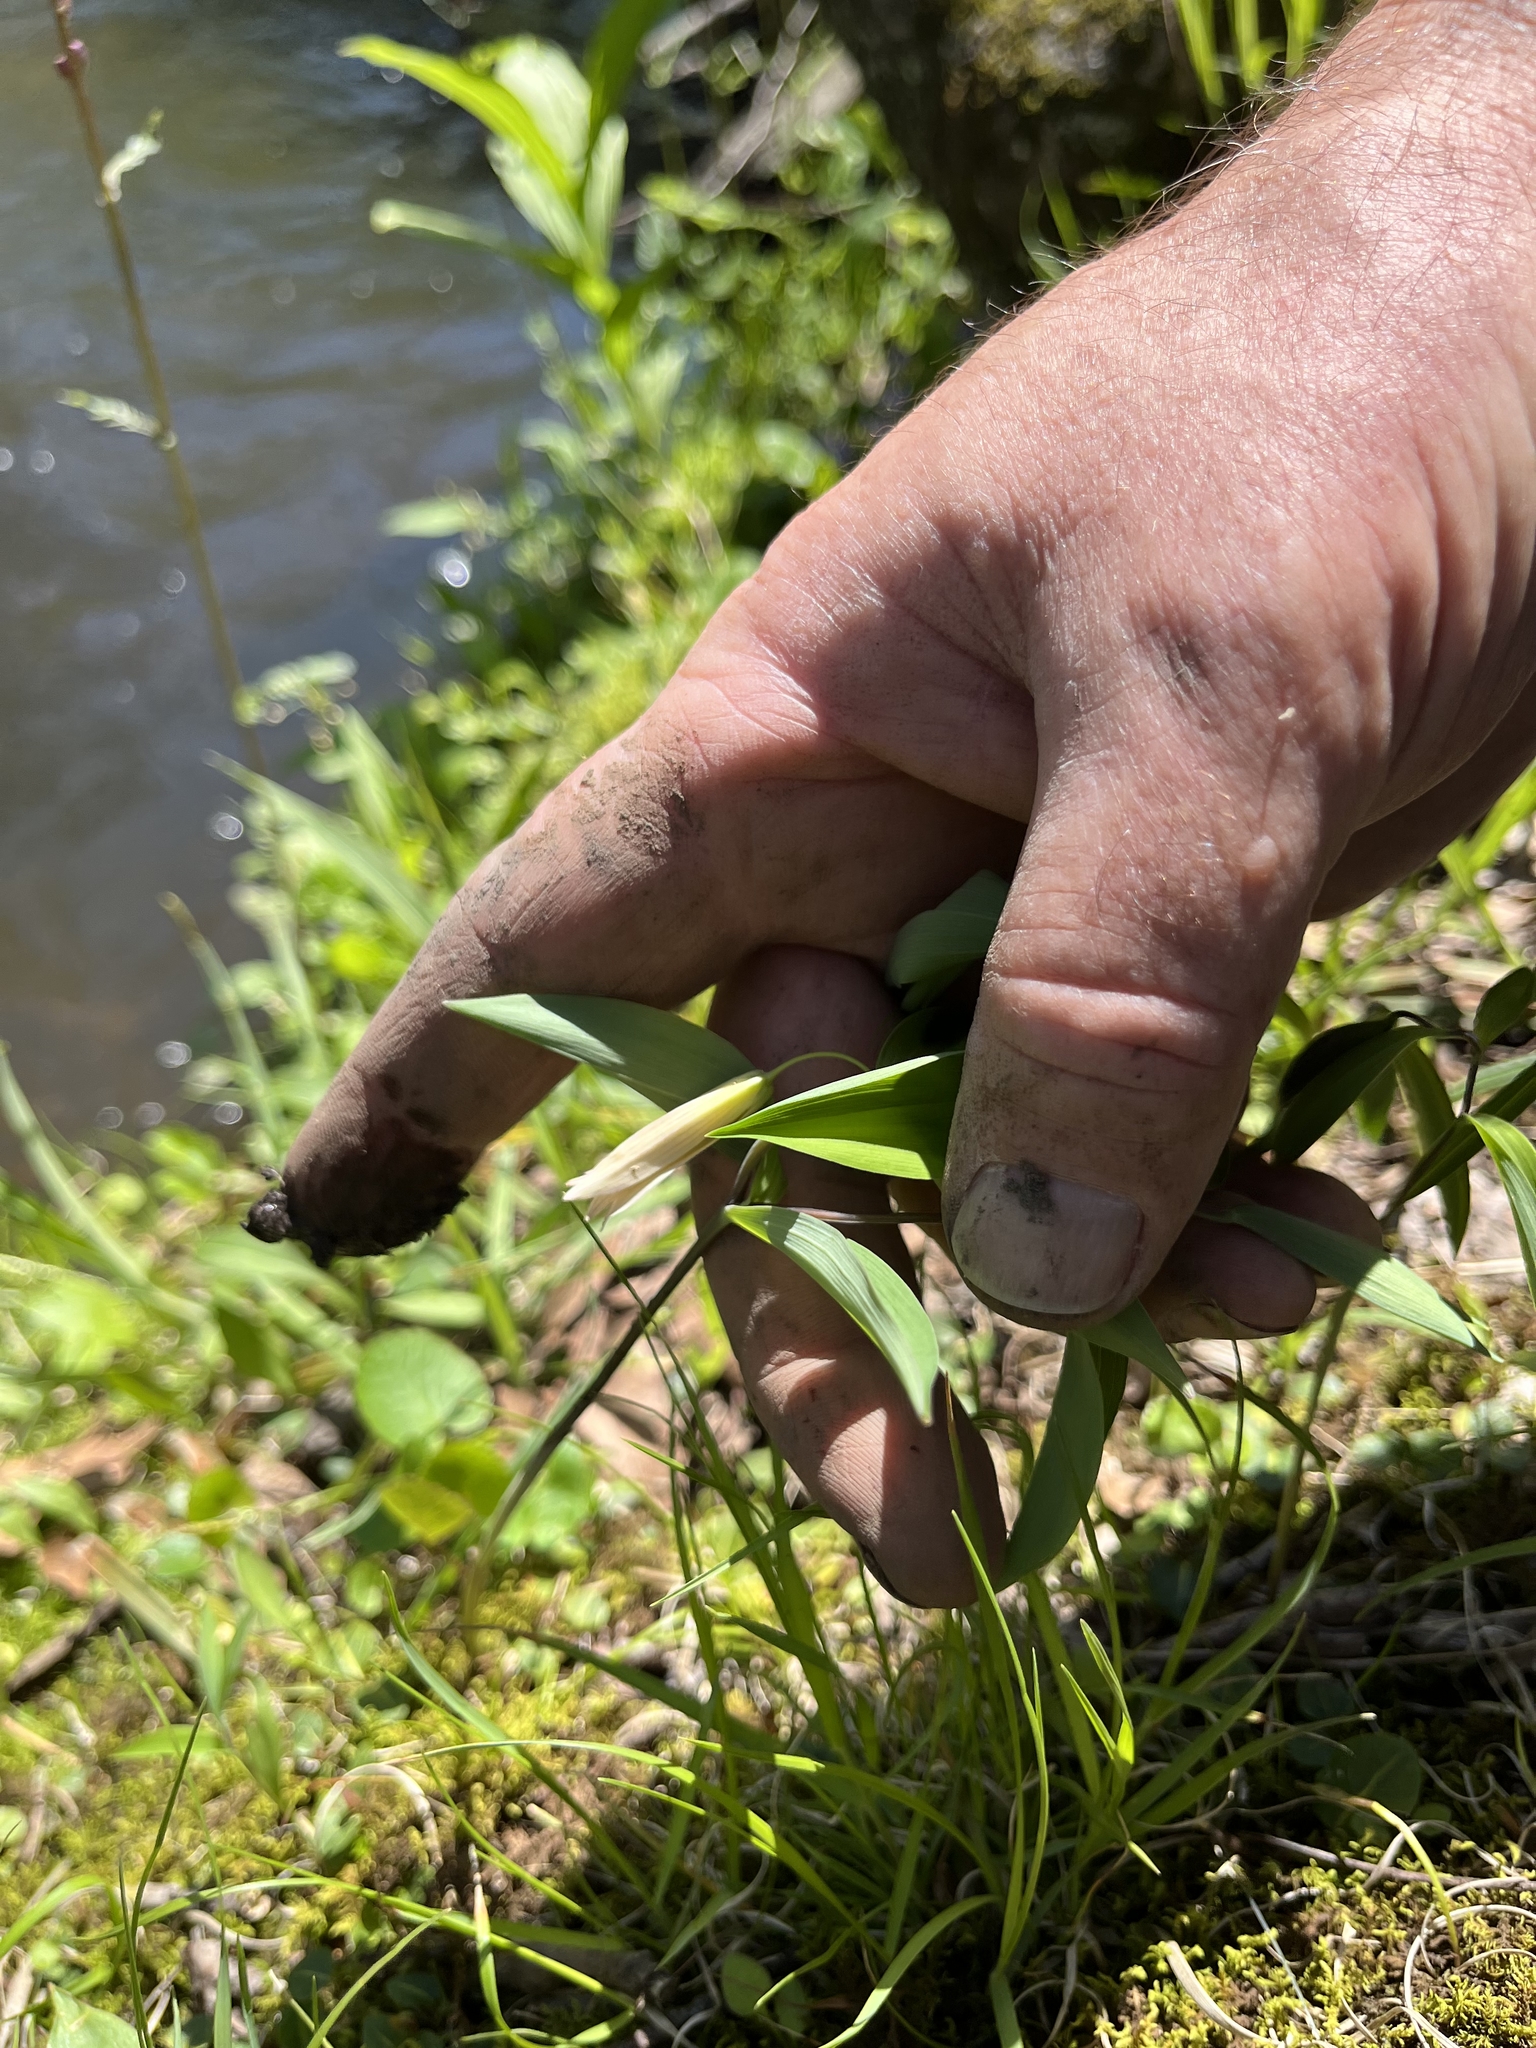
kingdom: Plantae
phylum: Tracheophyta
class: Liliopsida
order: Liliales
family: Colchicaceae
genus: Uvularia
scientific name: Uvularia sessilifolia
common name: Straw-lily
